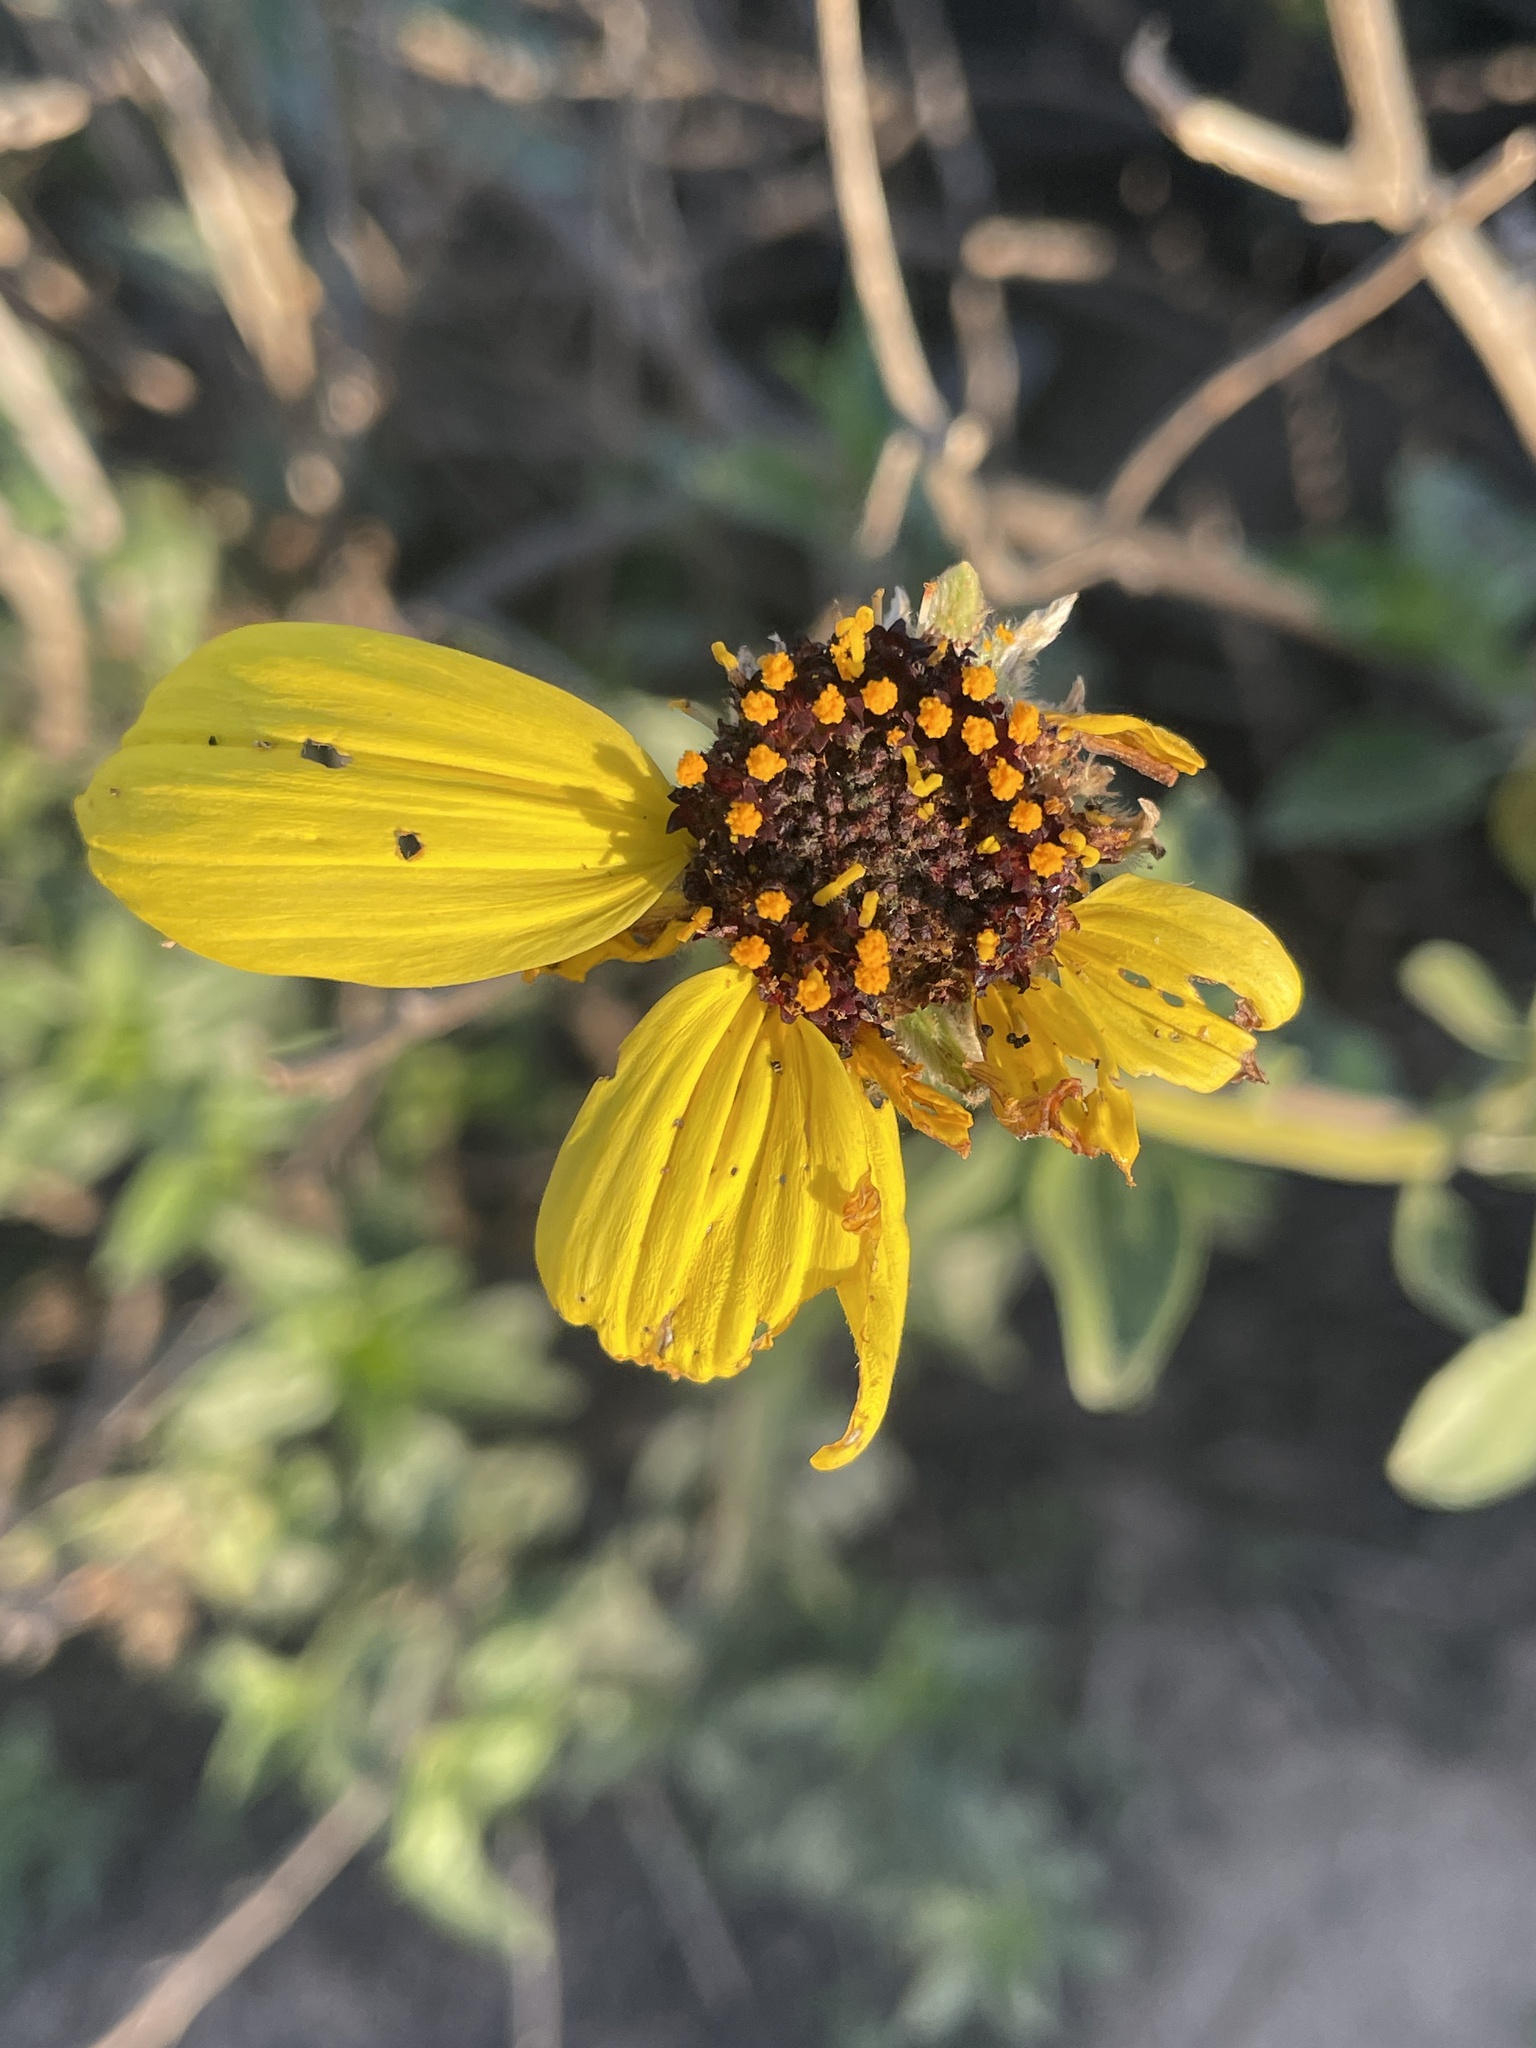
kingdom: Plantae
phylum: Tracheophyta
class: Magnoliopsida
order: Asterales
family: Asteraceae
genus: Encelia
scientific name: Encelia californica
